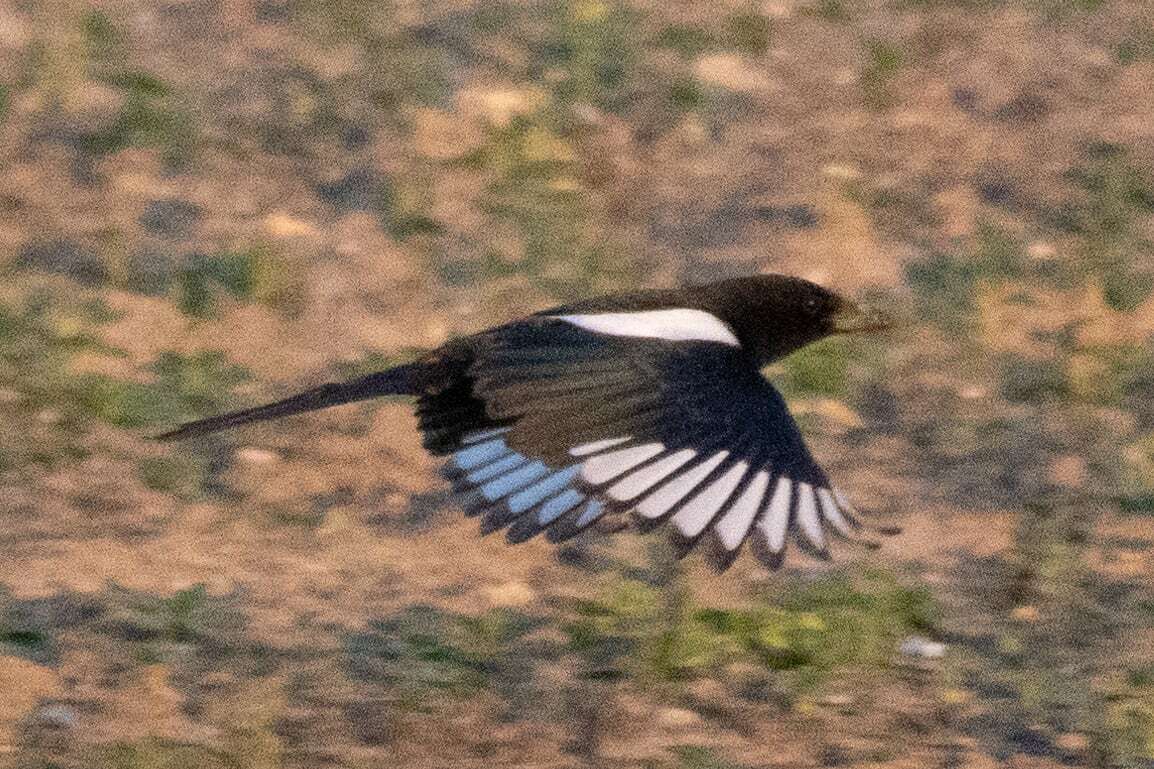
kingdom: Animalia
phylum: Chordata
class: Aves
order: Passeriformes
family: Corvidae
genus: Pica
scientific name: Pica pica
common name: Eurasian magpie
